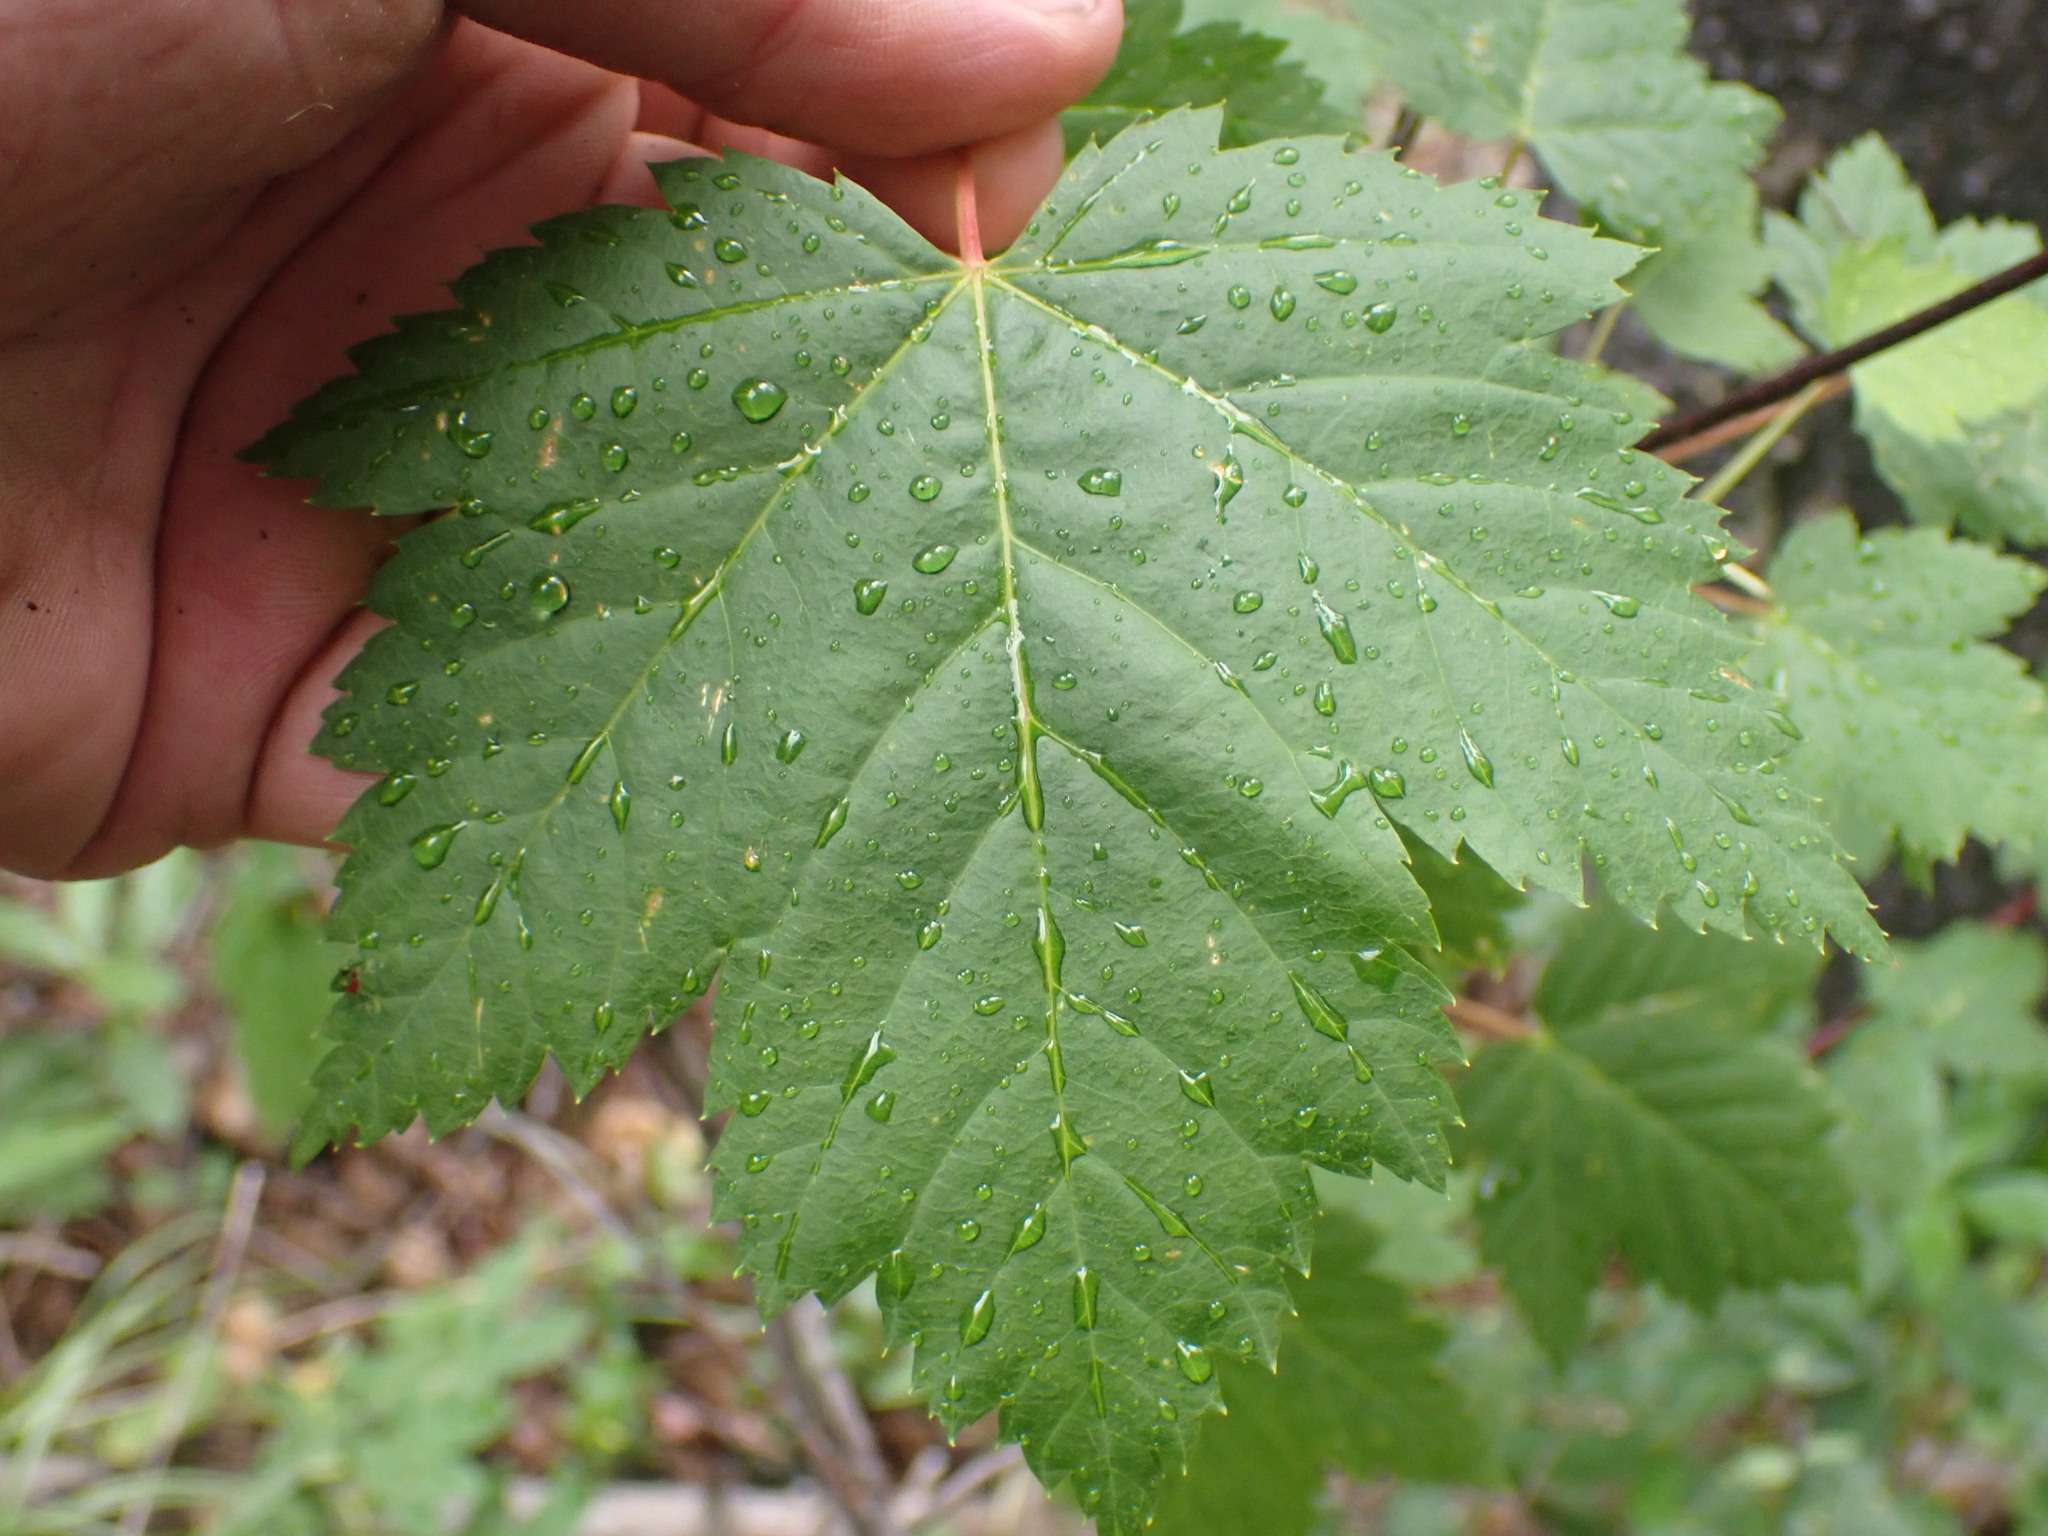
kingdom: Plantae
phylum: Tracheophyta
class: Magnoliopsida
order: Sapindales
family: Sapindaceae
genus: Acer
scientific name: Acer glabrum
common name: Rocky mountain maple
